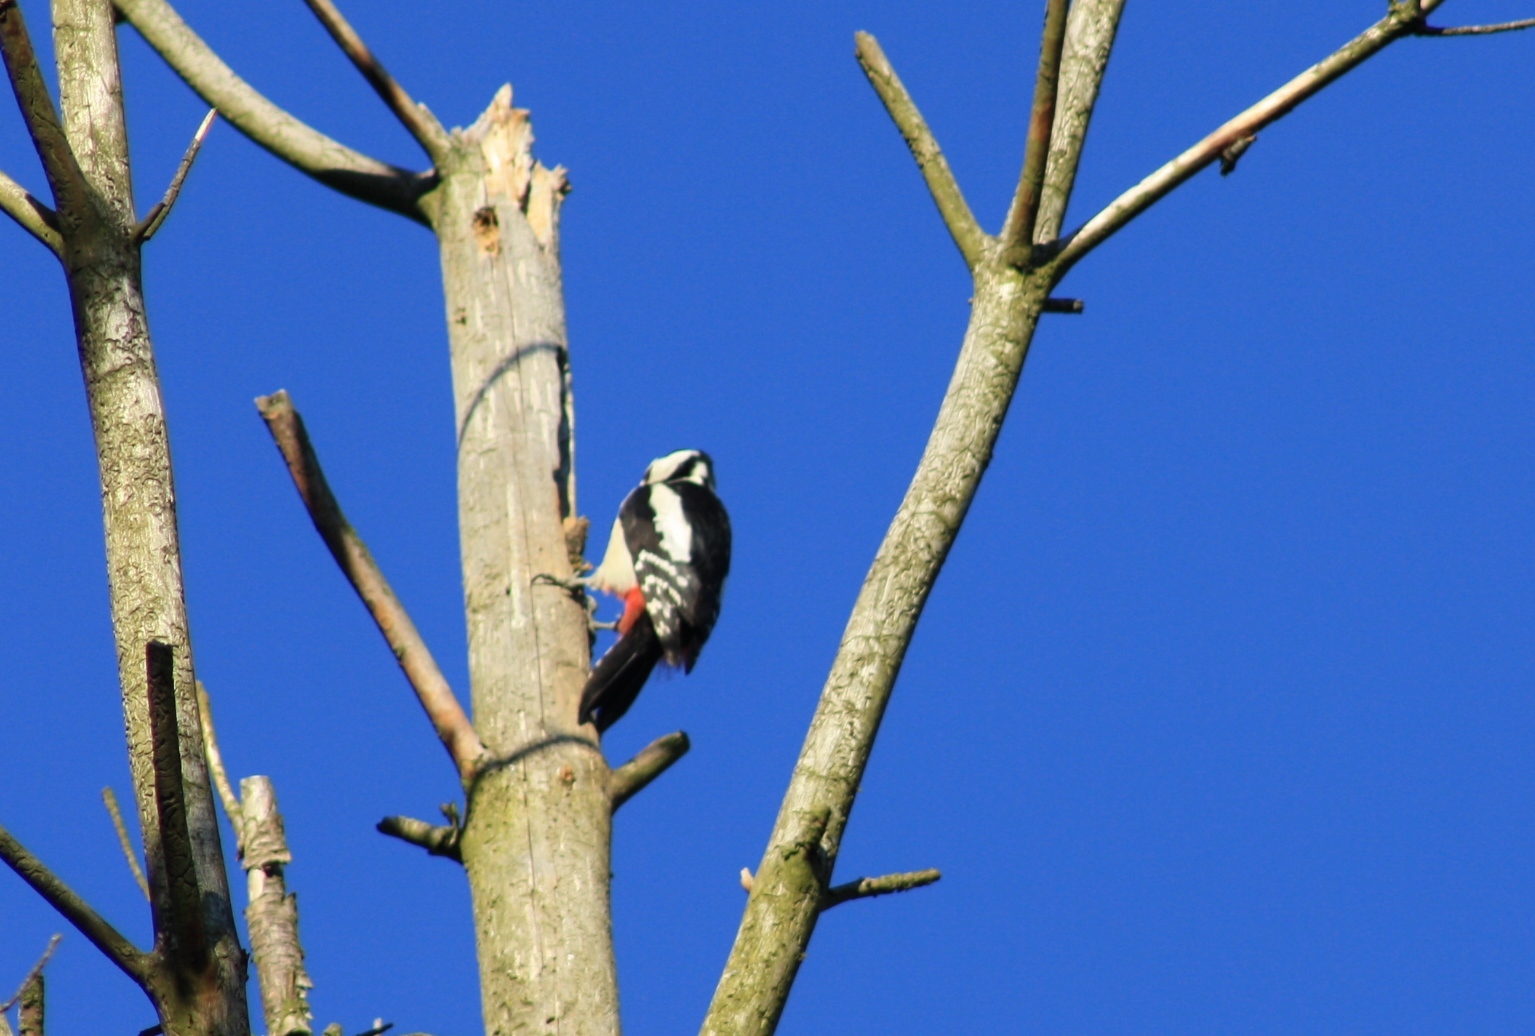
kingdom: Animalia
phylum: Chordata
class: Aves
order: Piciformes
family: Picidae
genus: Dendrocopos
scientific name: Dendrocopos major
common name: Great spotted woodpecker
